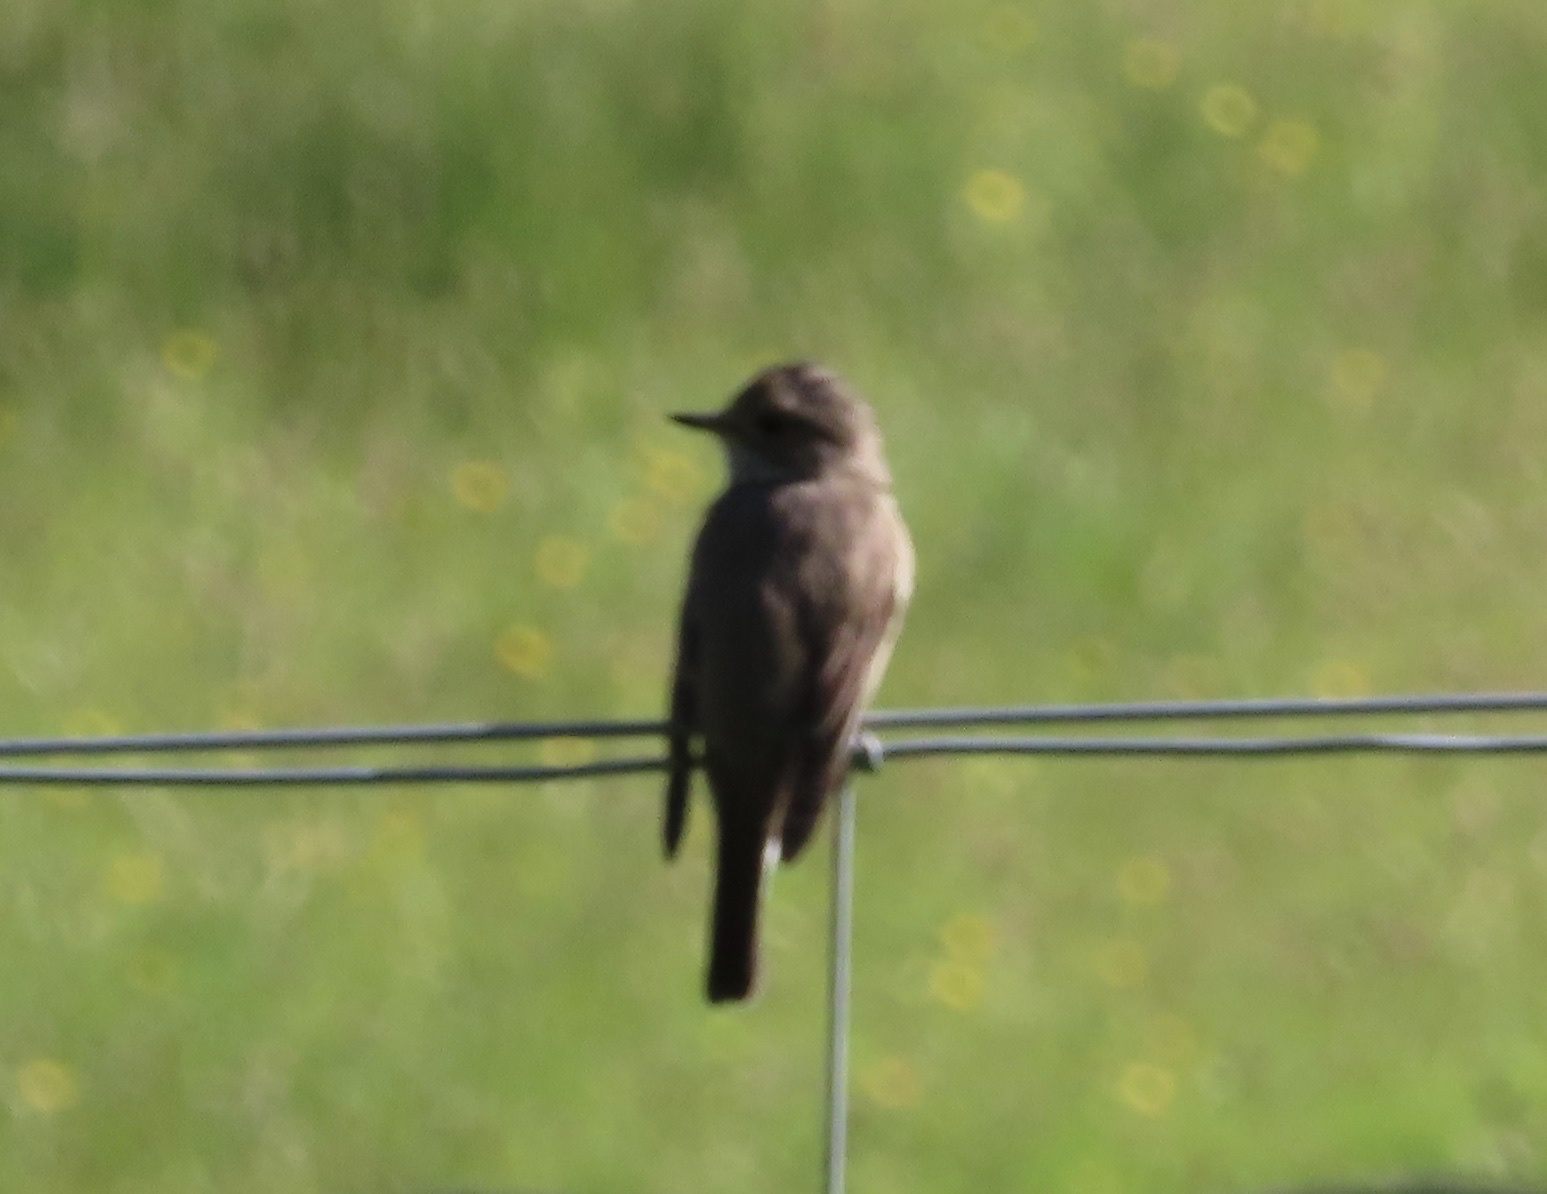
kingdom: Animalia
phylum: Chordata
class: Aves
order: Passeriformes
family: Muscicapidae
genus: Muscicapa
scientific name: Muscicapa striata
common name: Spotted flycatcher
